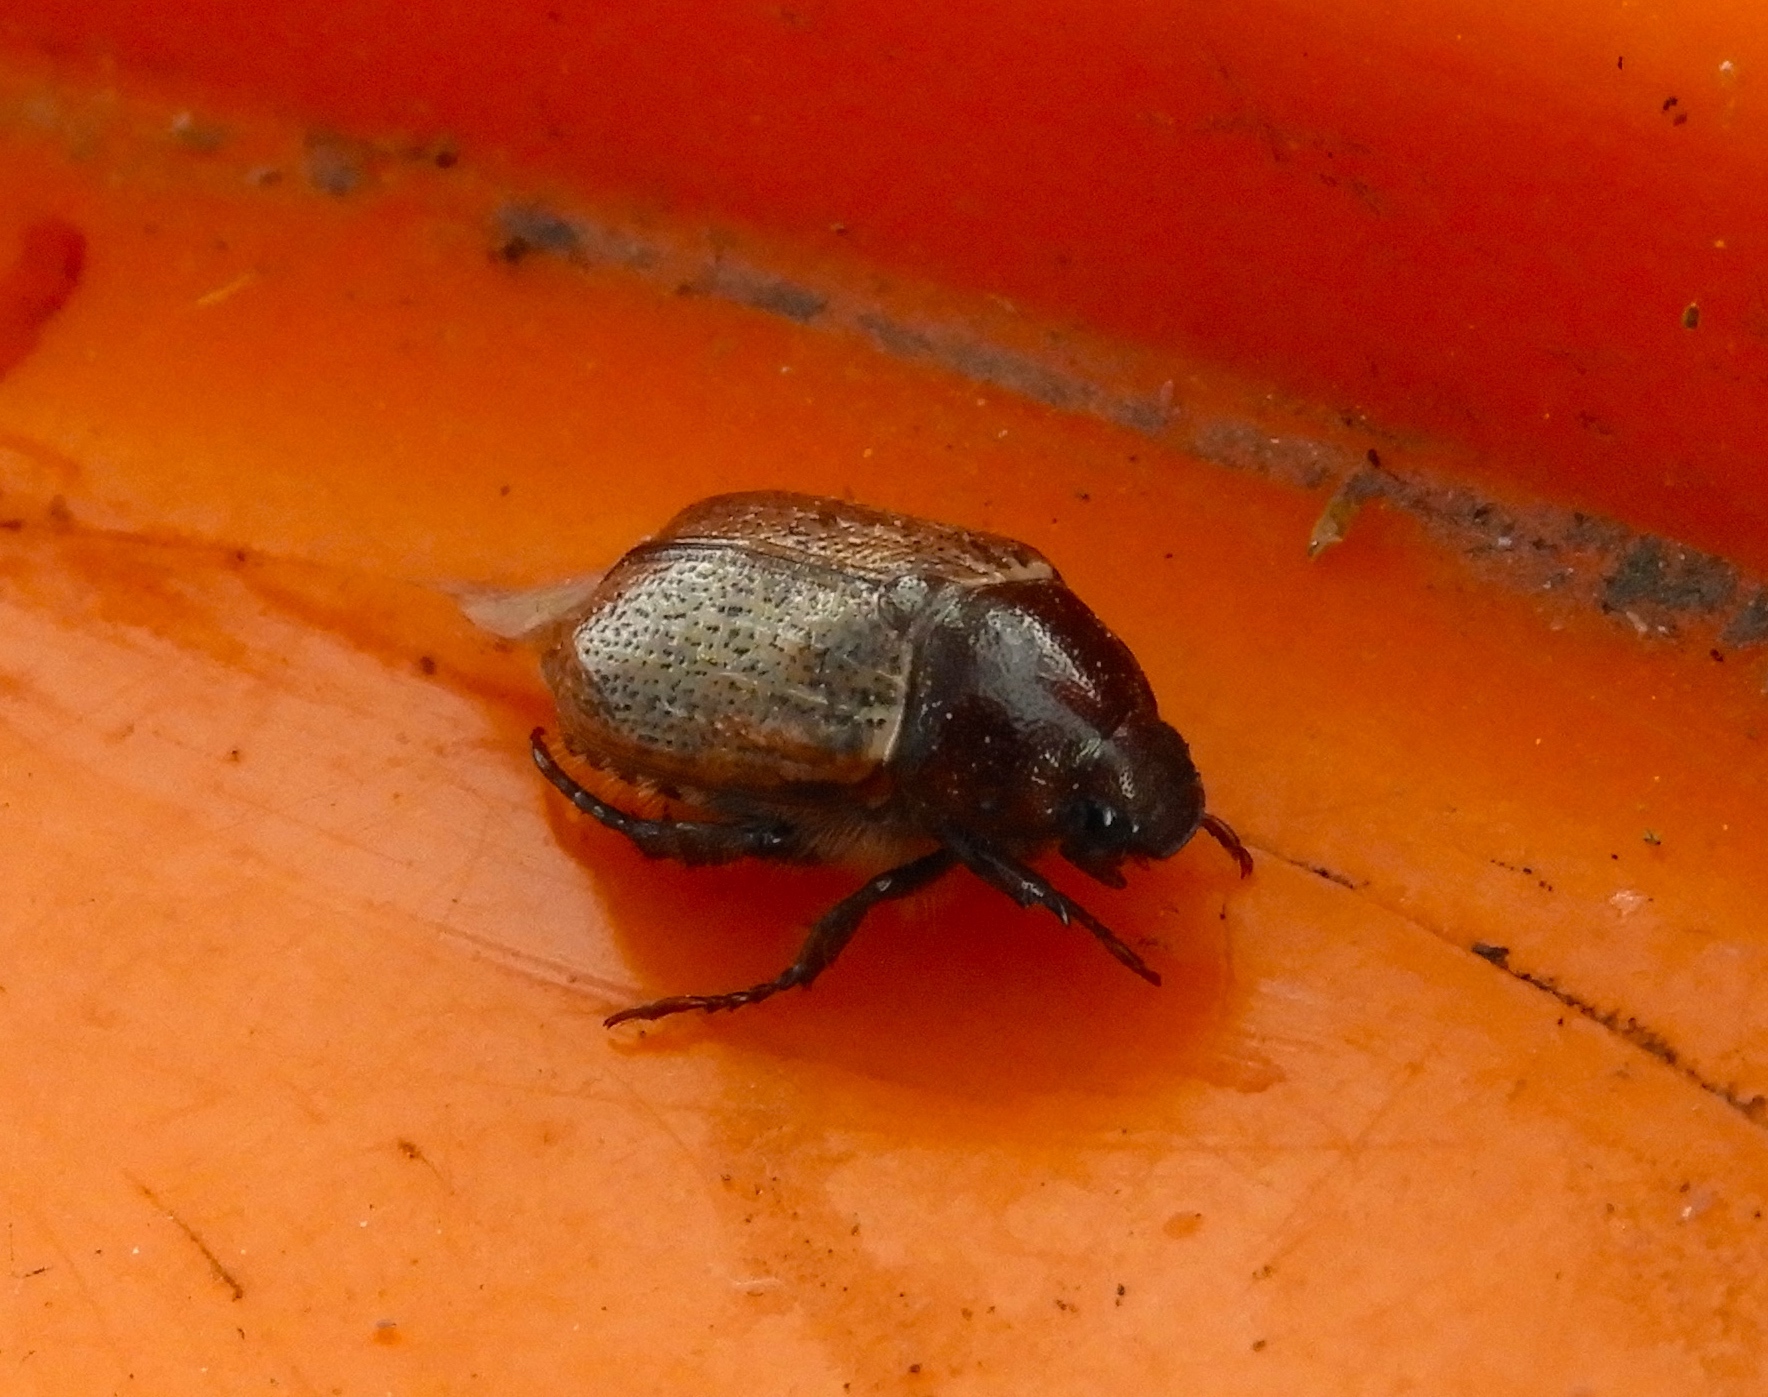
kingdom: Animalia
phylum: Arthropoda
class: Insecta
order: Coleoptera
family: Scarabaeidae
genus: Paranomala
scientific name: Paranomala
